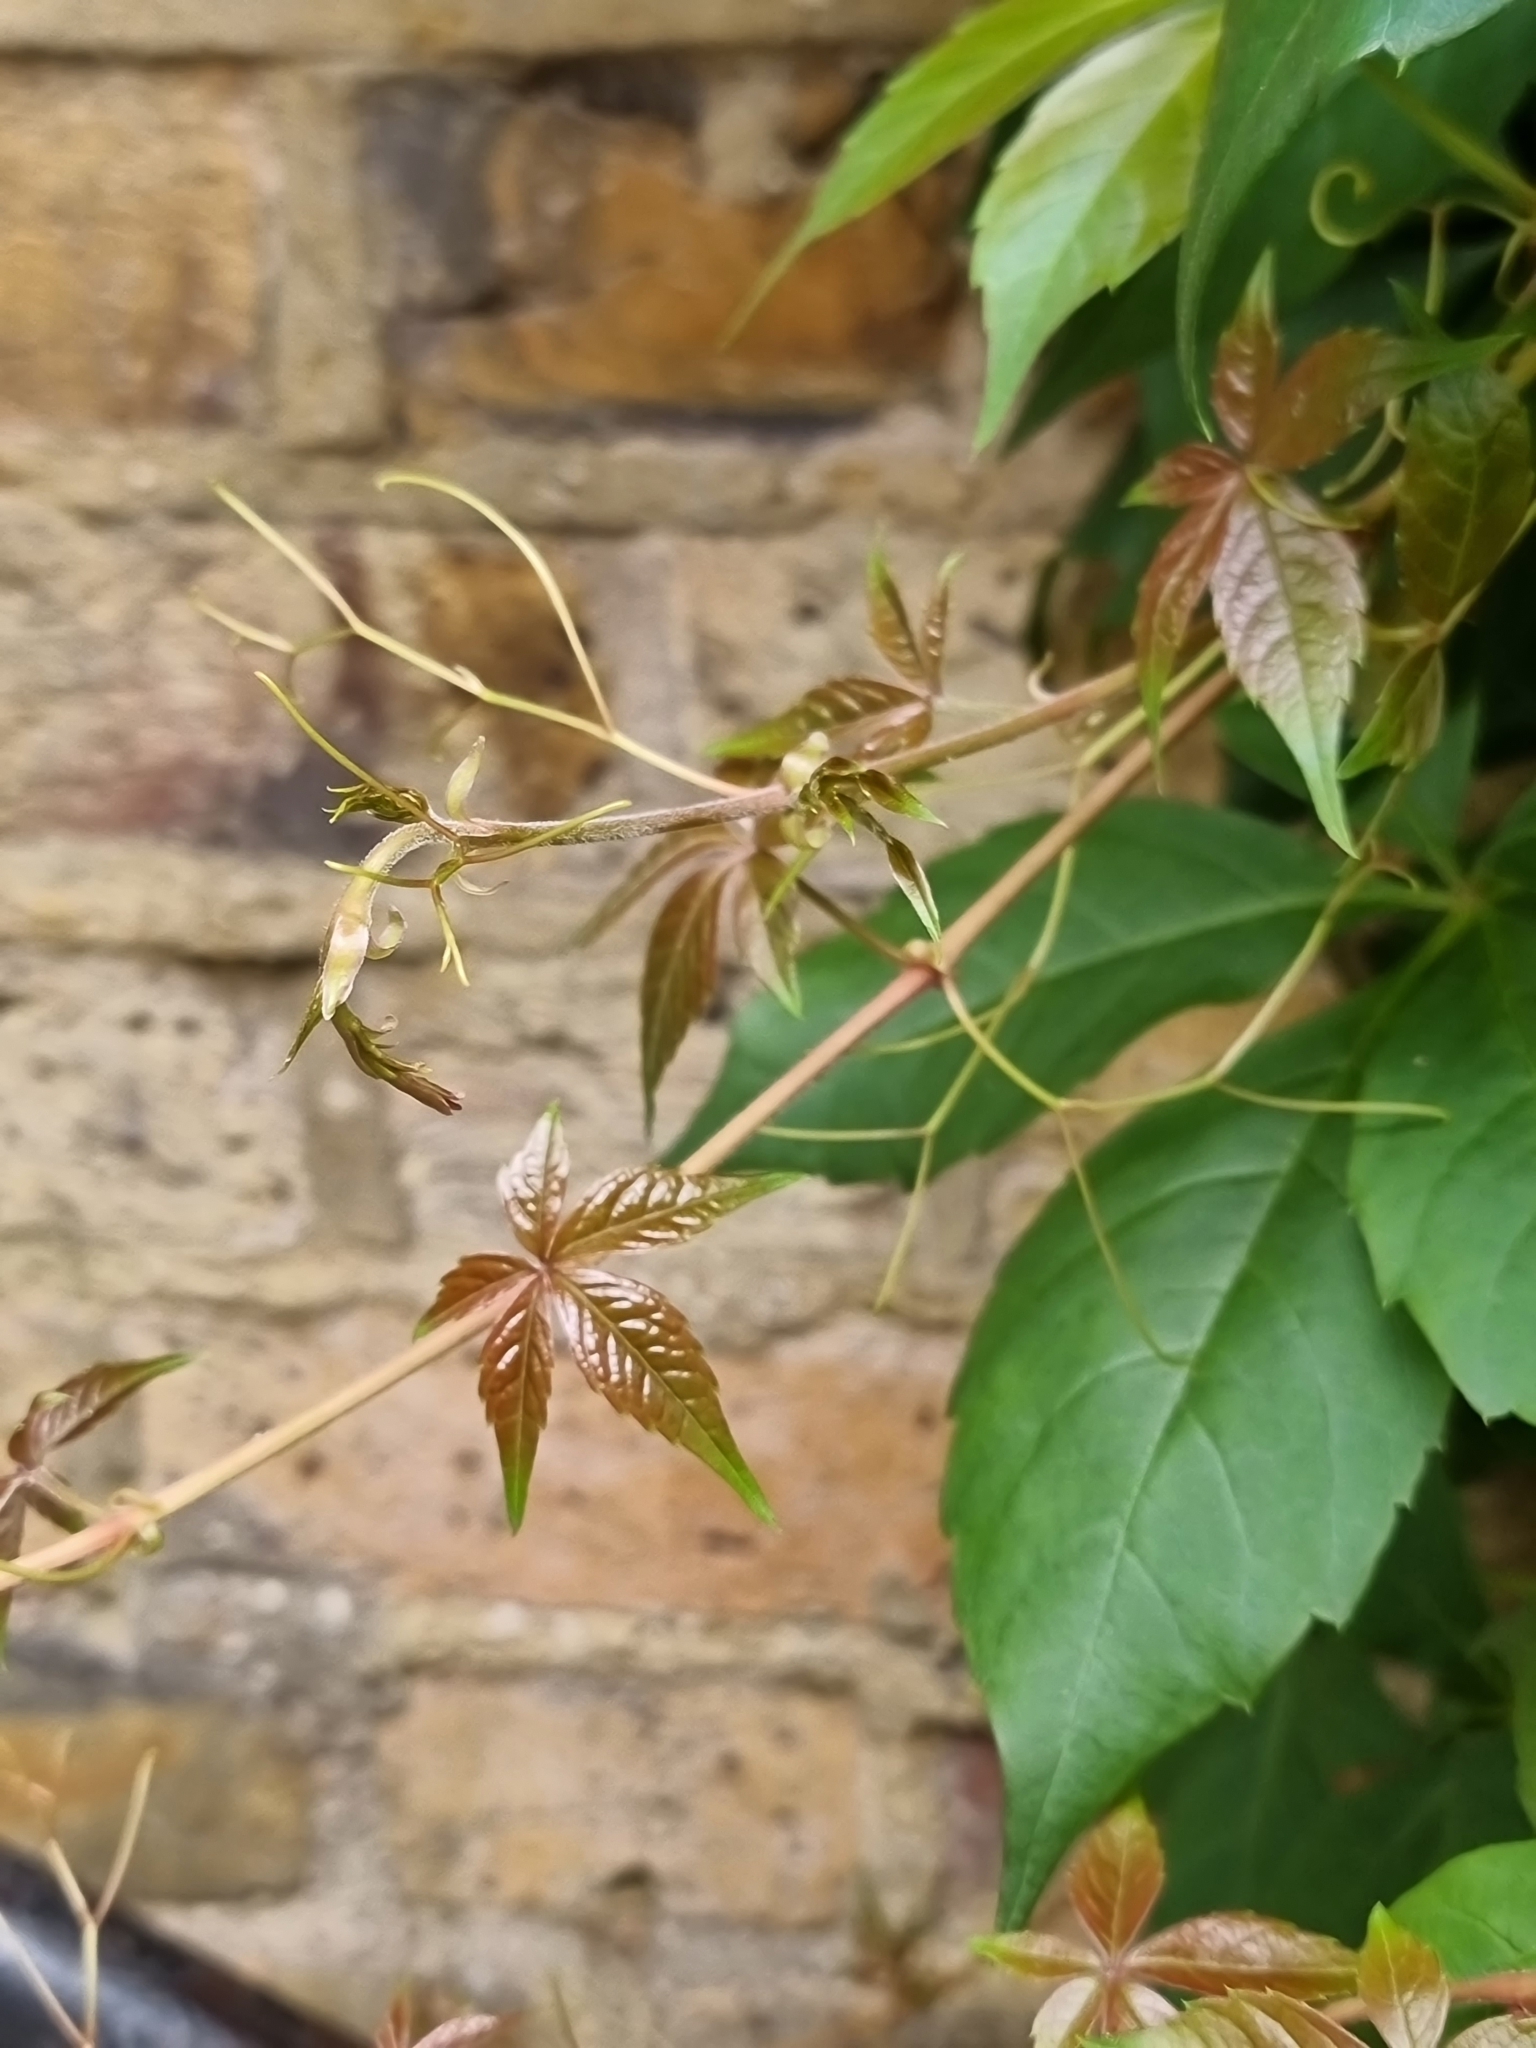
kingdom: Plantae
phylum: Tracheophyta
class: Magnoliopsida
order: Vitales
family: Vitaceae
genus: Parthenocissus
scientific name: Parthenocissus quinquefolia
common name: Virginia-creeper
